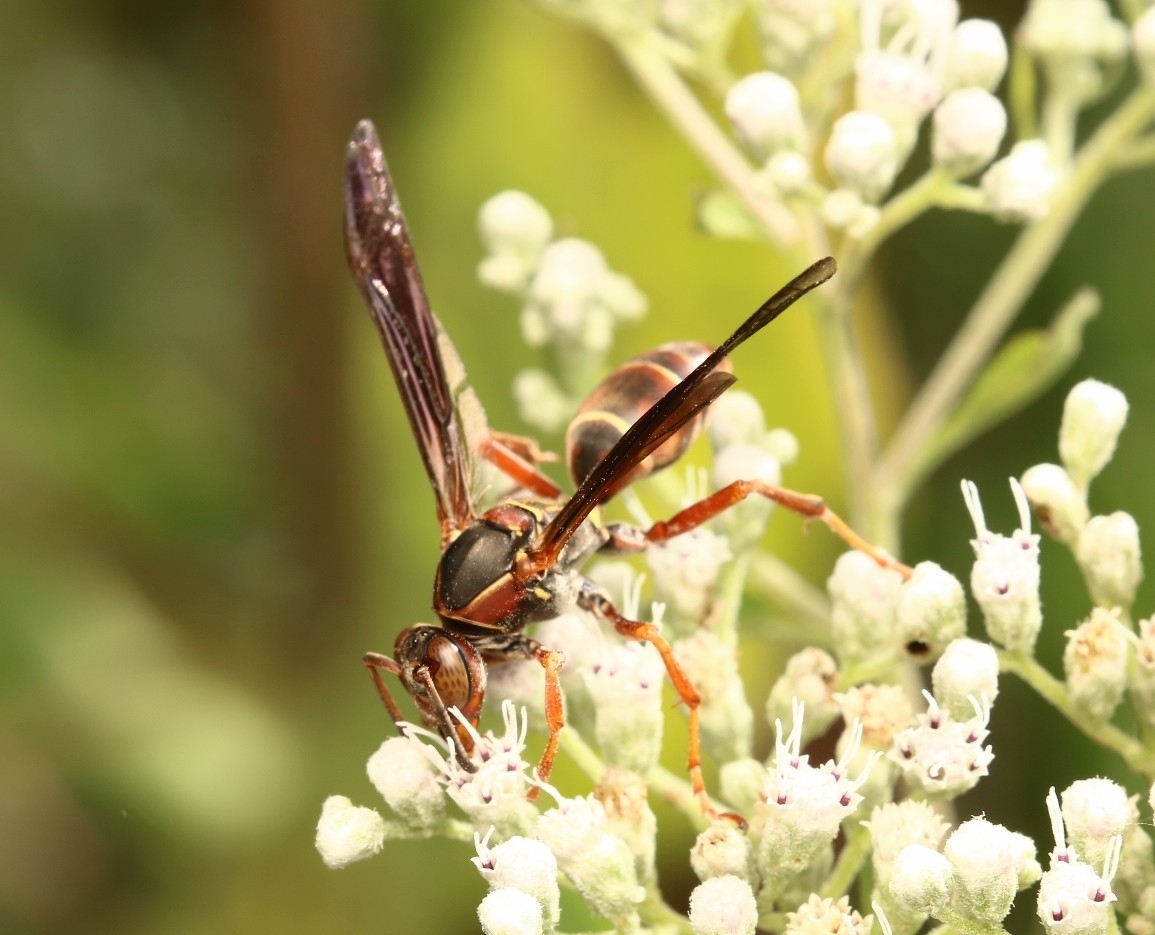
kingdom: Animalia
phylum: Arthropoda
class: Insecta
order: Hymenoptera
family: Eumenidae
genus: Polistes
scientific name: Polistes fuscatus
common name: Dark paper wasp
